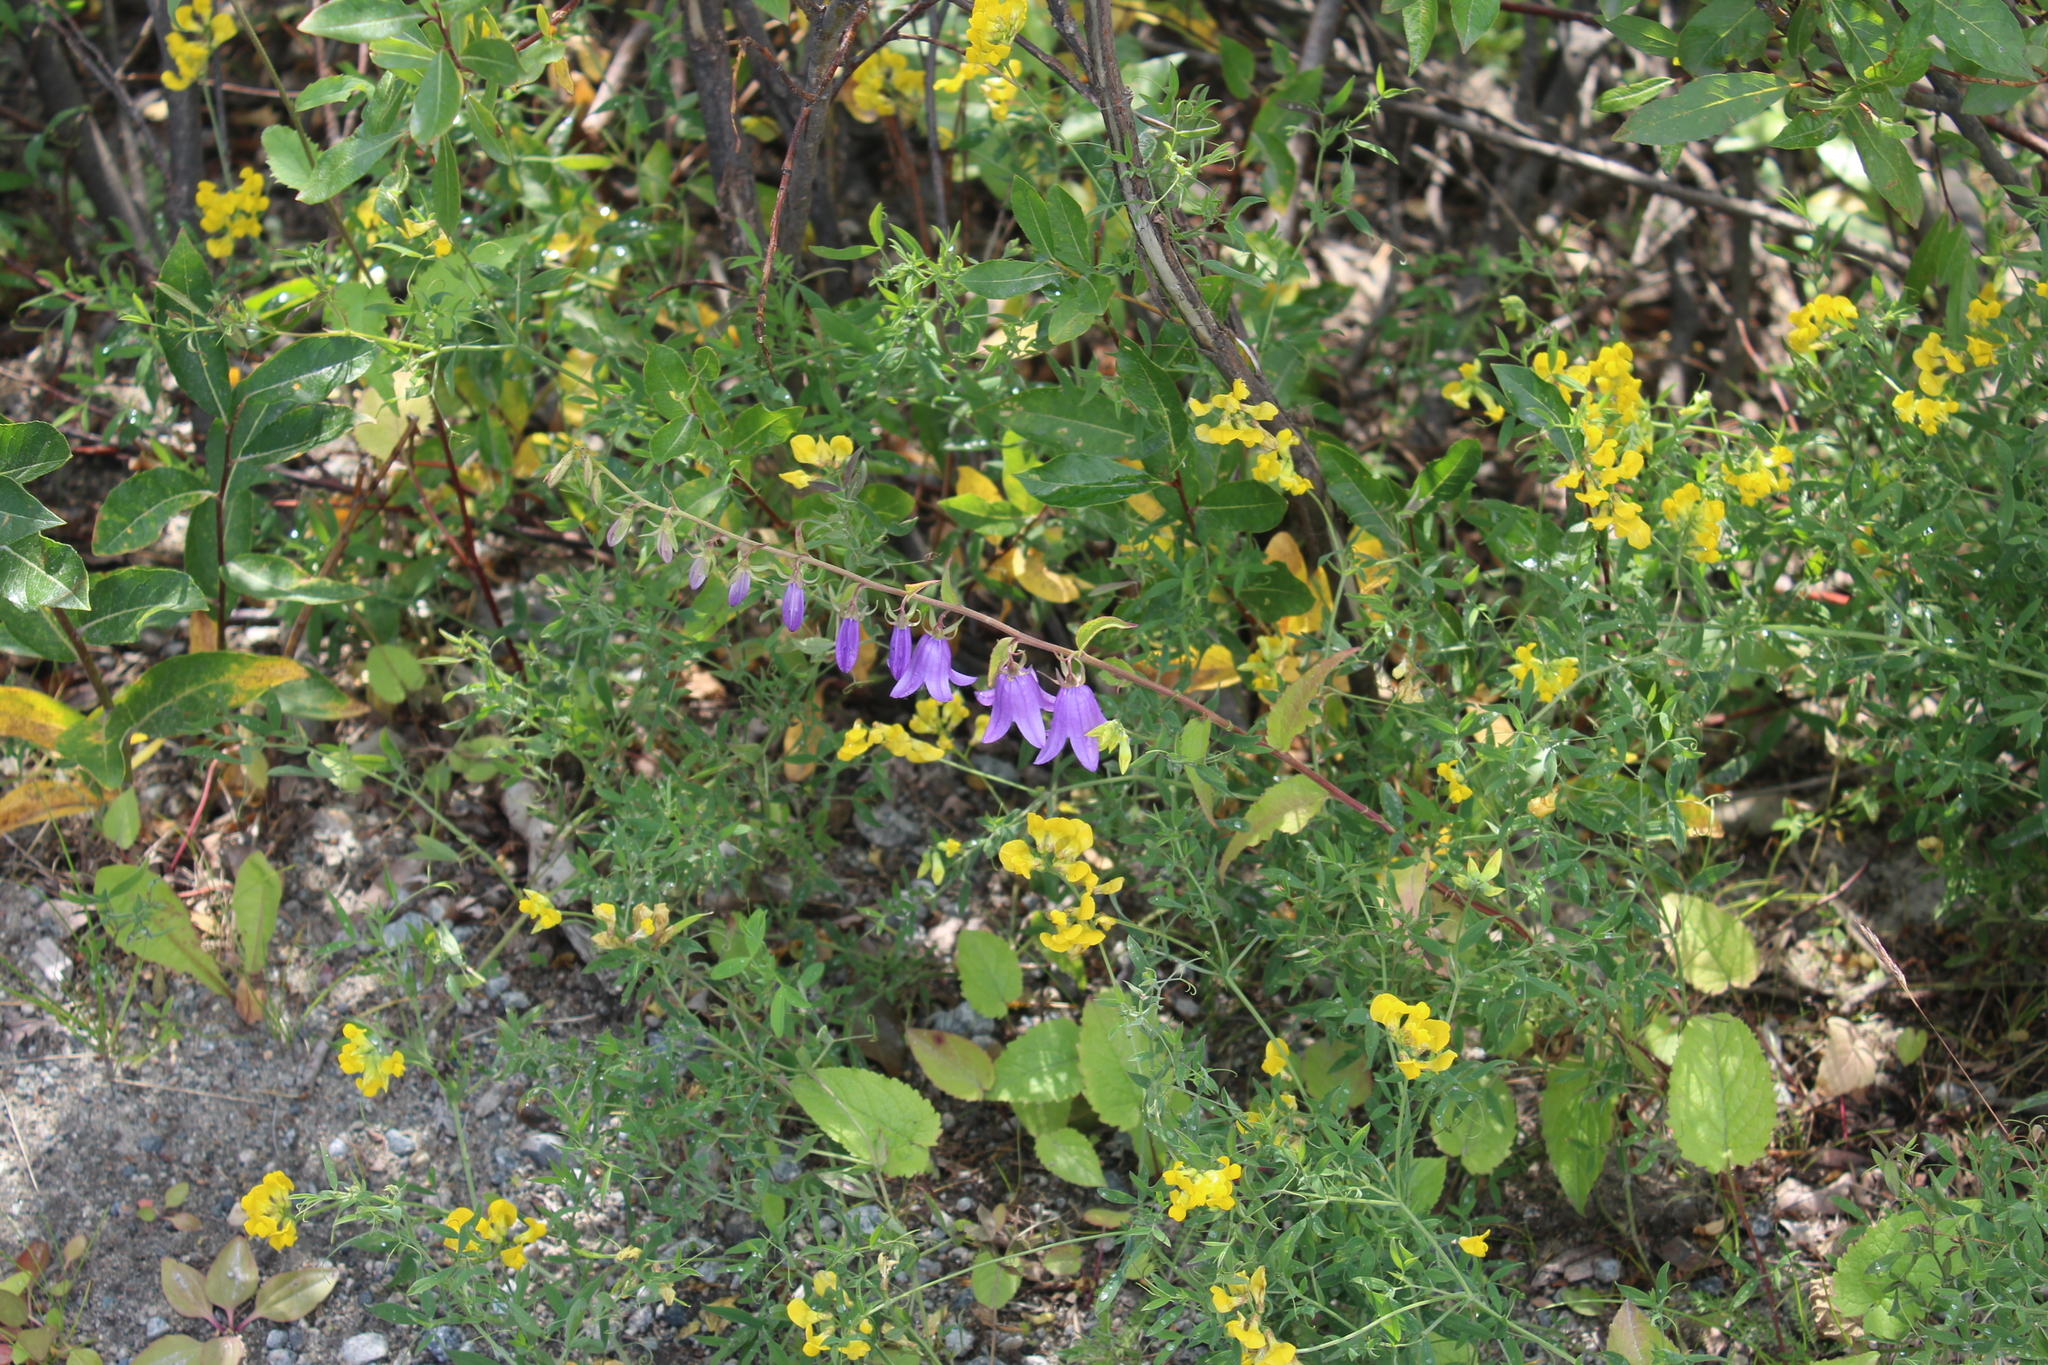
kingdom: Plantae
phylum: Tracheophyta
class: Magnoliopsida
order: Asterales
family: Campanulaceae
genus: Campanula
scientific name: Campanula rapunculoides
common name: Creeping bellflower
